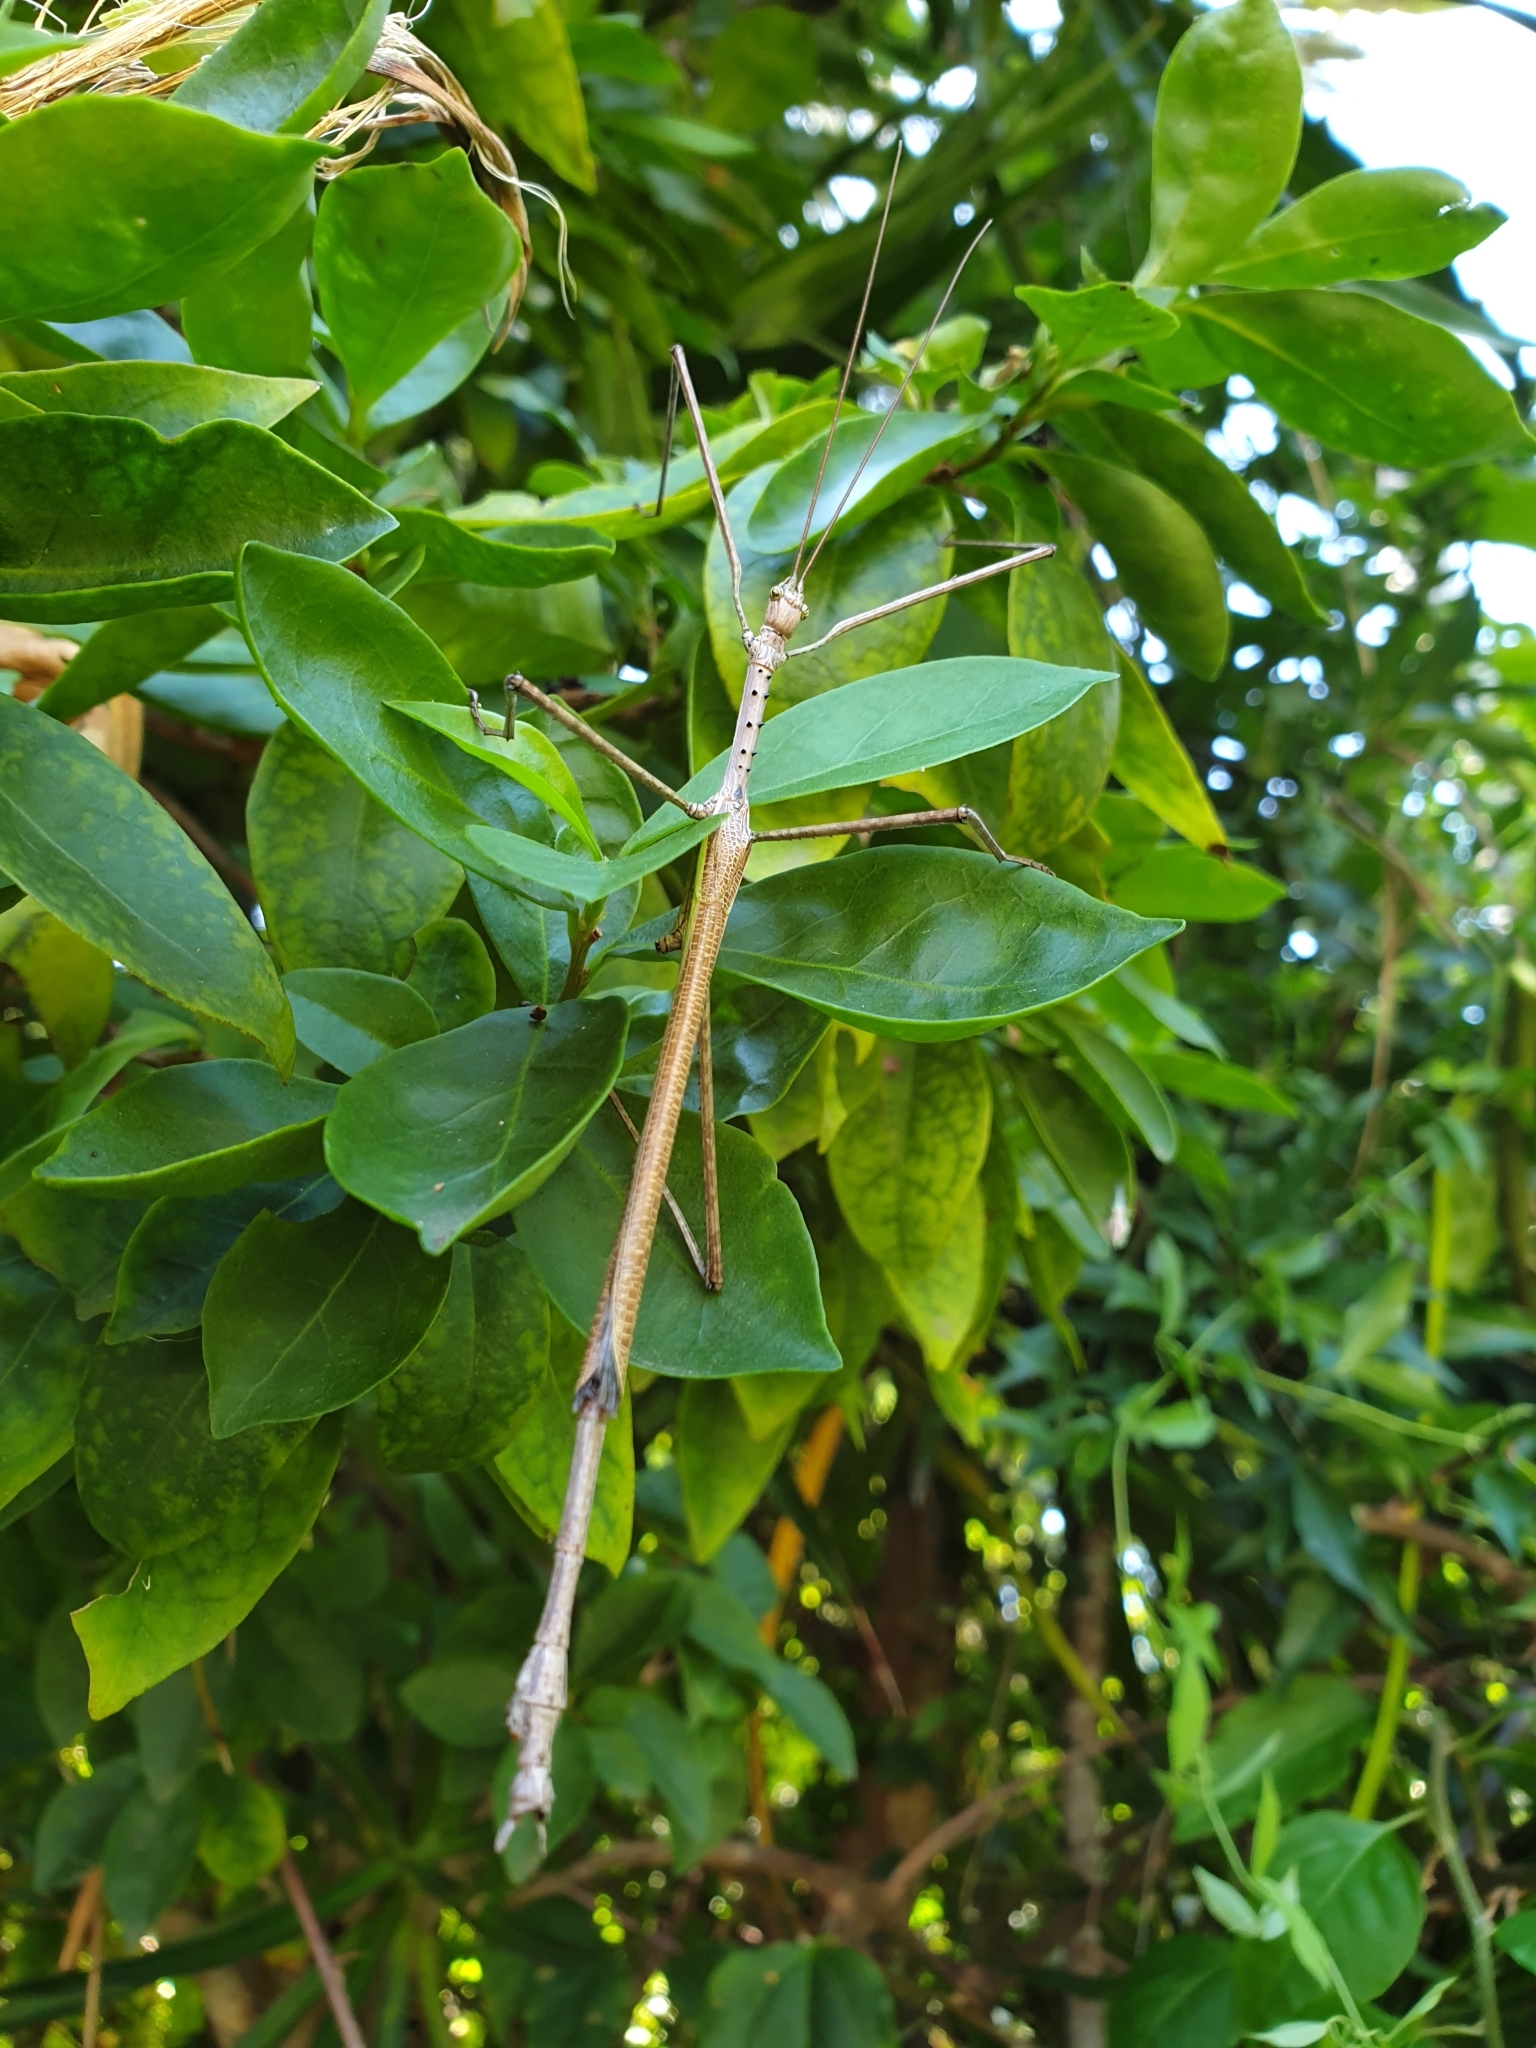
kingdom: Animalia
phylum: Arthropoda
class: Insecta
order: Phasmida
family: Phasmatidae
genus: Anchiale
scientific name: Anchiale austrotessulata
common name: Tessellated stick-insect
